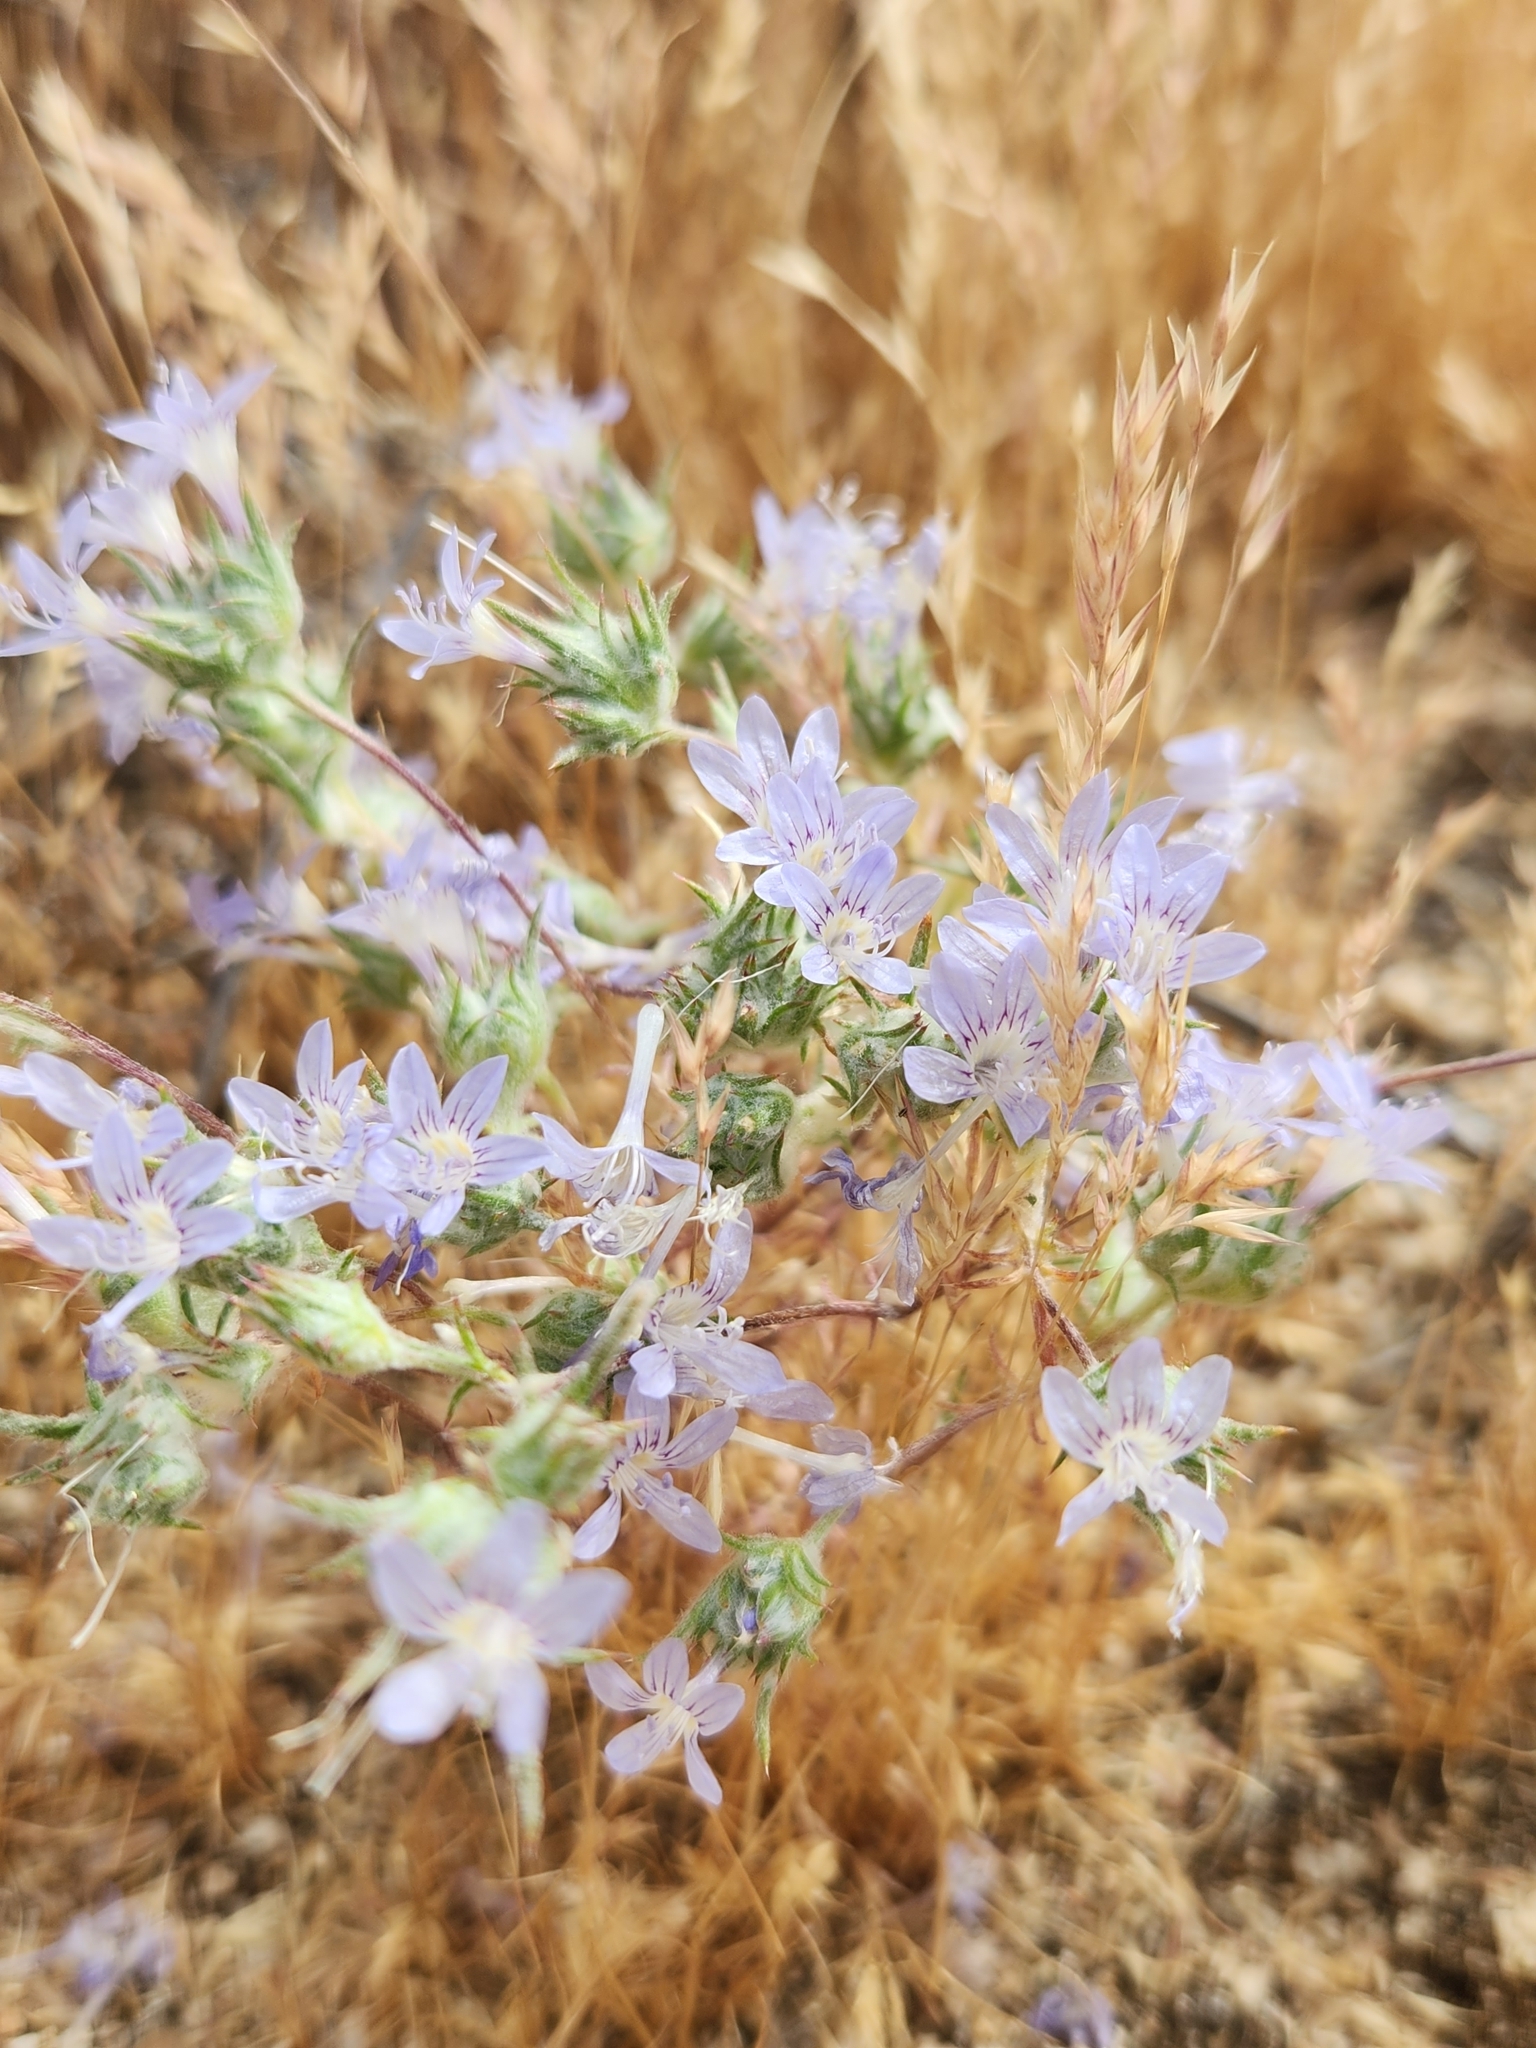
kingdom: Plantae
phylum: Tracheophyta
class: Magnoliopsida
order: Ericales
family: Polemoniaceae
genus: Eriastrum
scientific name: Eriastrum eremicum
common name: Desert eriastrum
